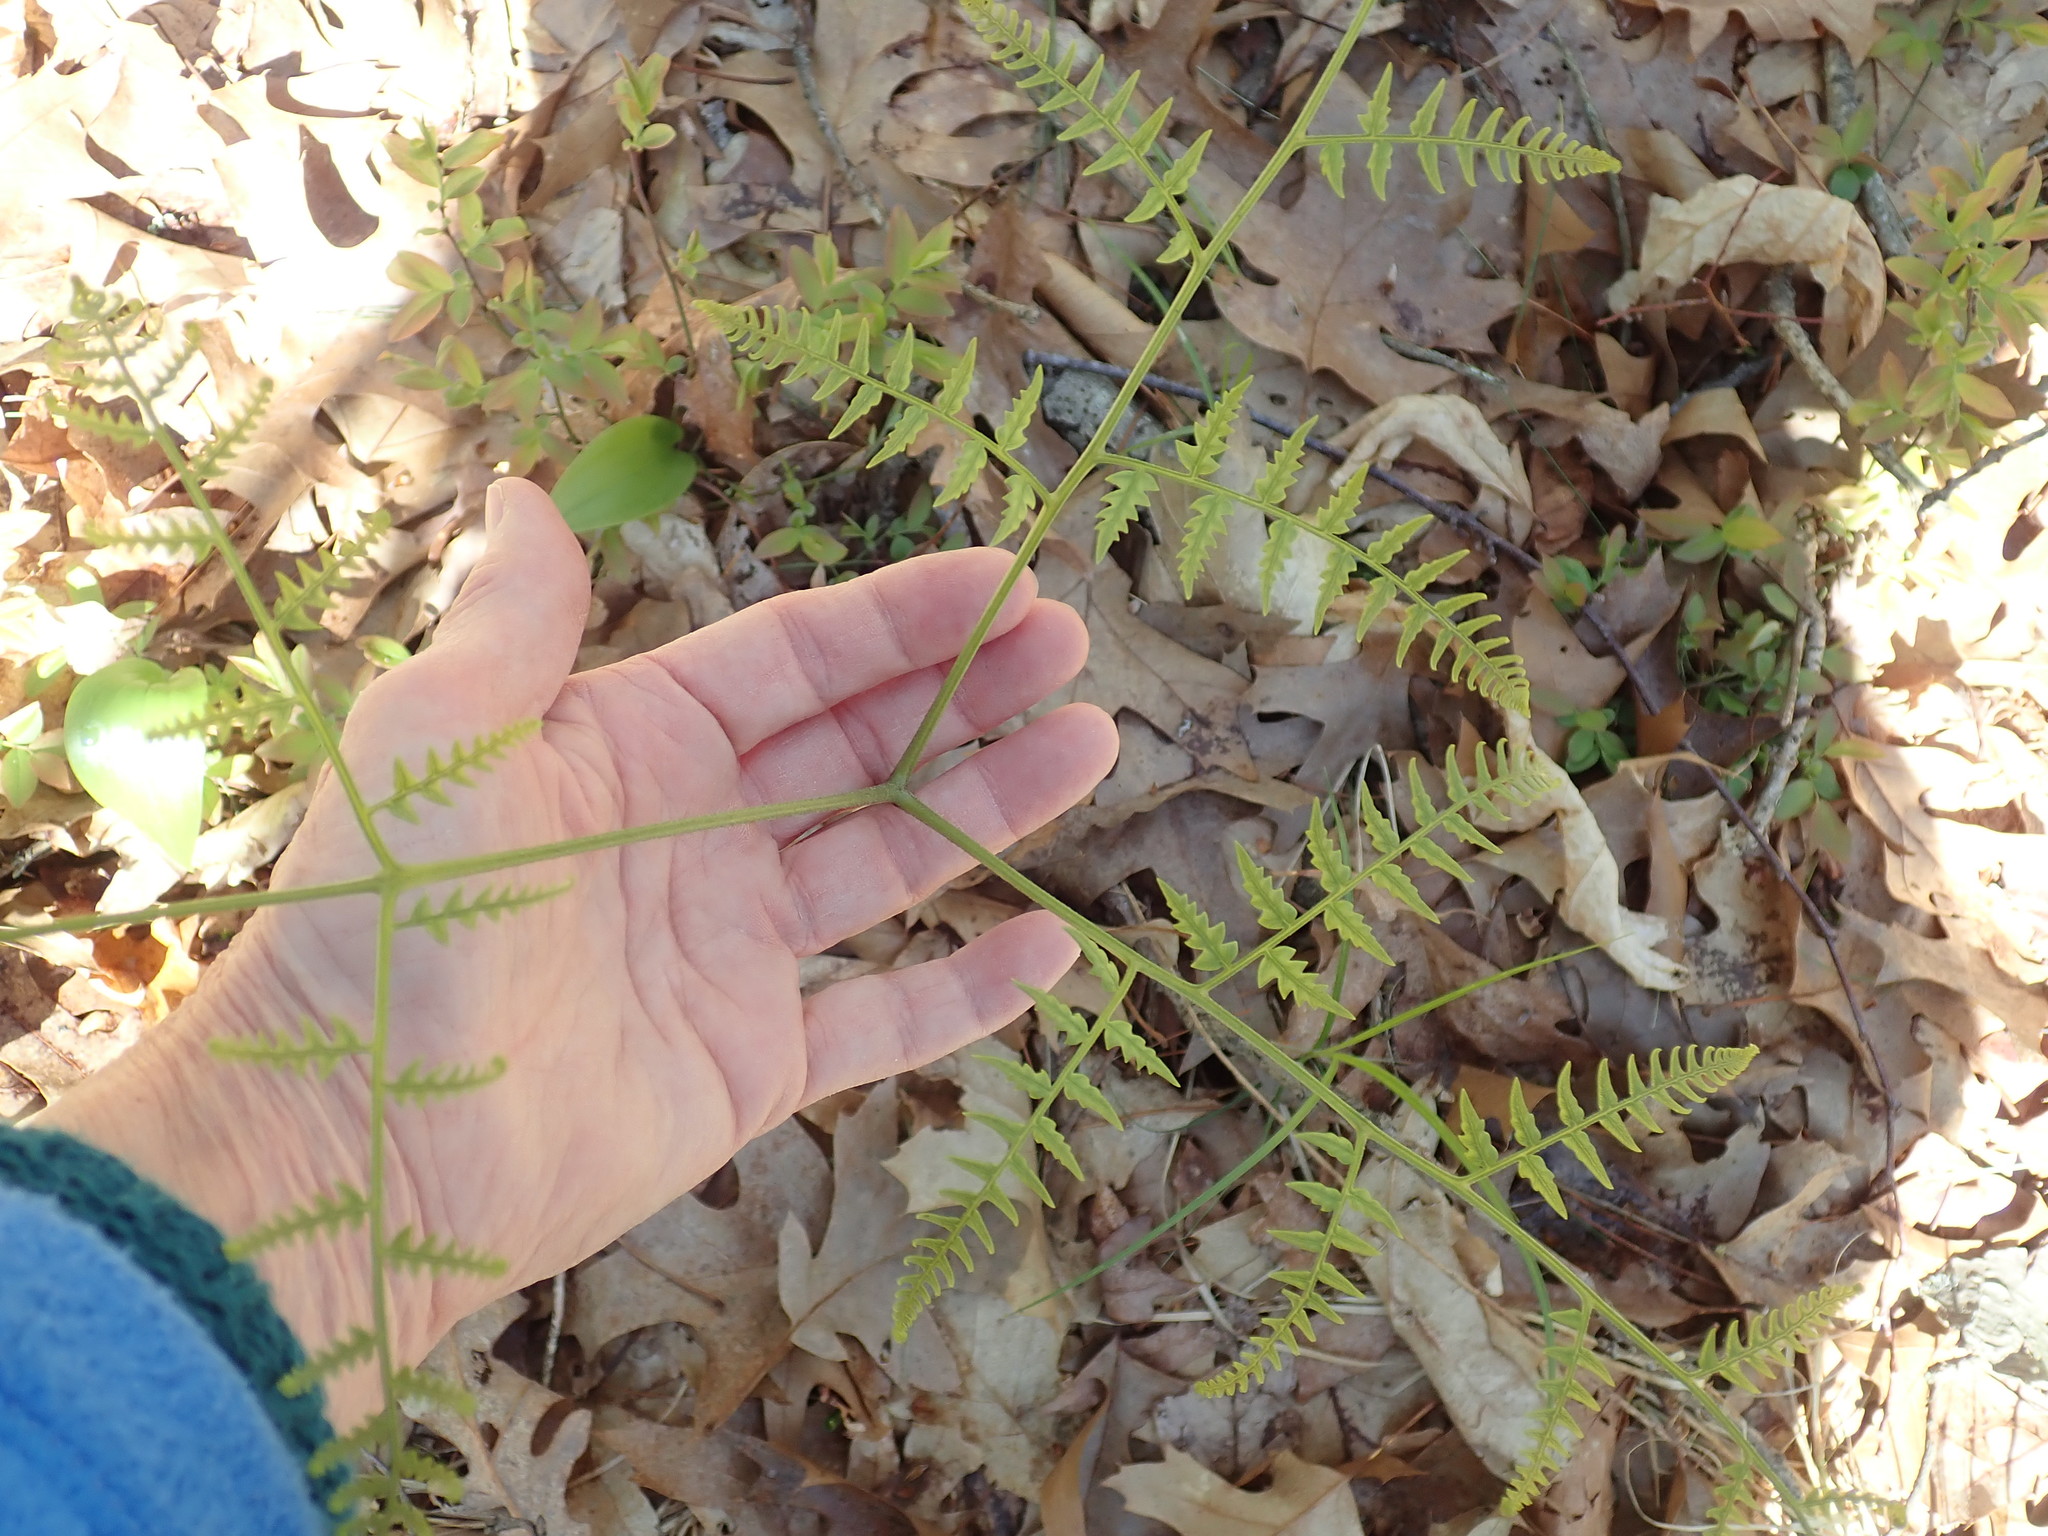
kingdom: Plantae
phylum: Tracheophyta
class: Polypodiopsida
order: Polypodiales
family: Dennstaedtiaceae
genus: Pteridium
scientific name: Pteridium aquilinum
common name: Bracken
